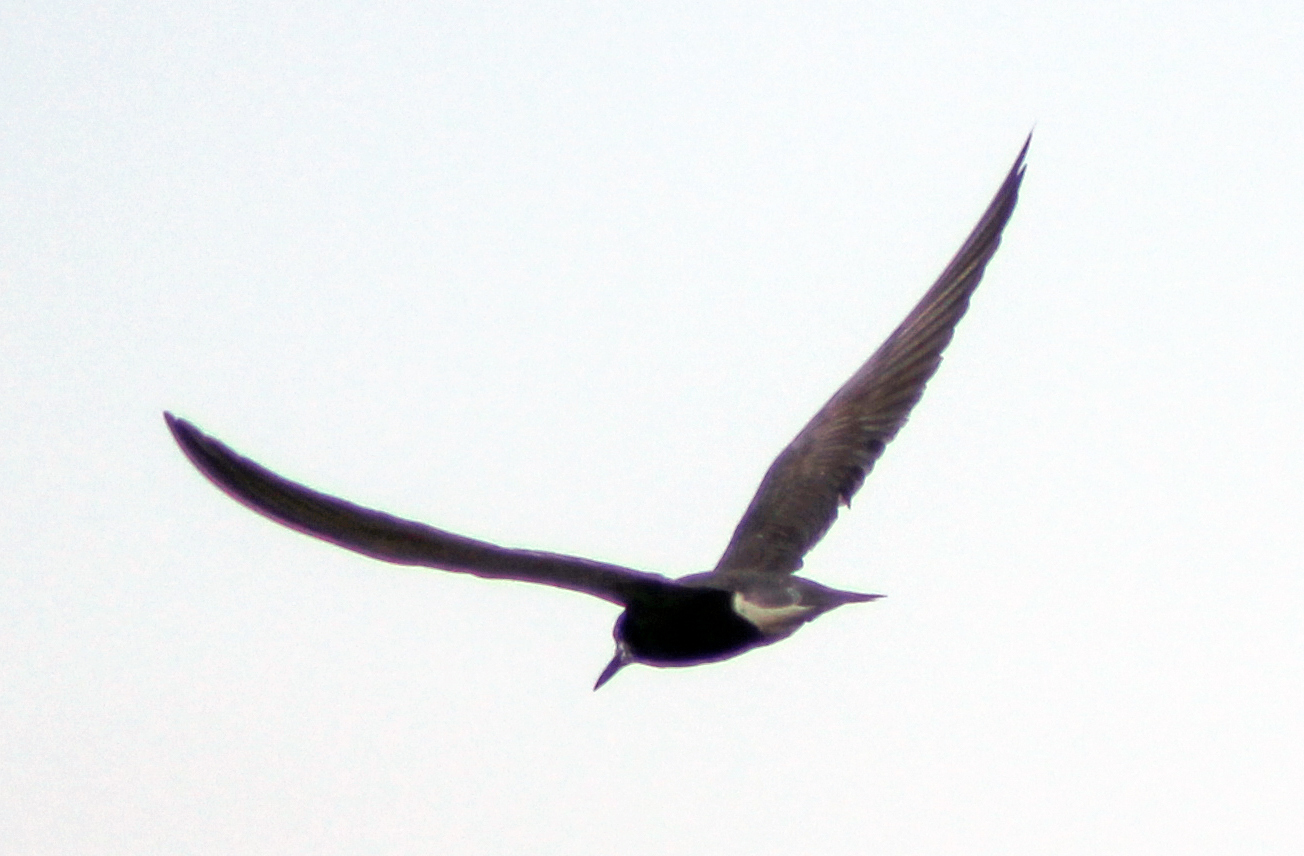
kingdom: Animalia
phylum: Chordata
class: Aves
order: Charadriiformes
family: Laridae
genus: Chlidonias
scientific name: Chlidonias niger
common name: Black tern
